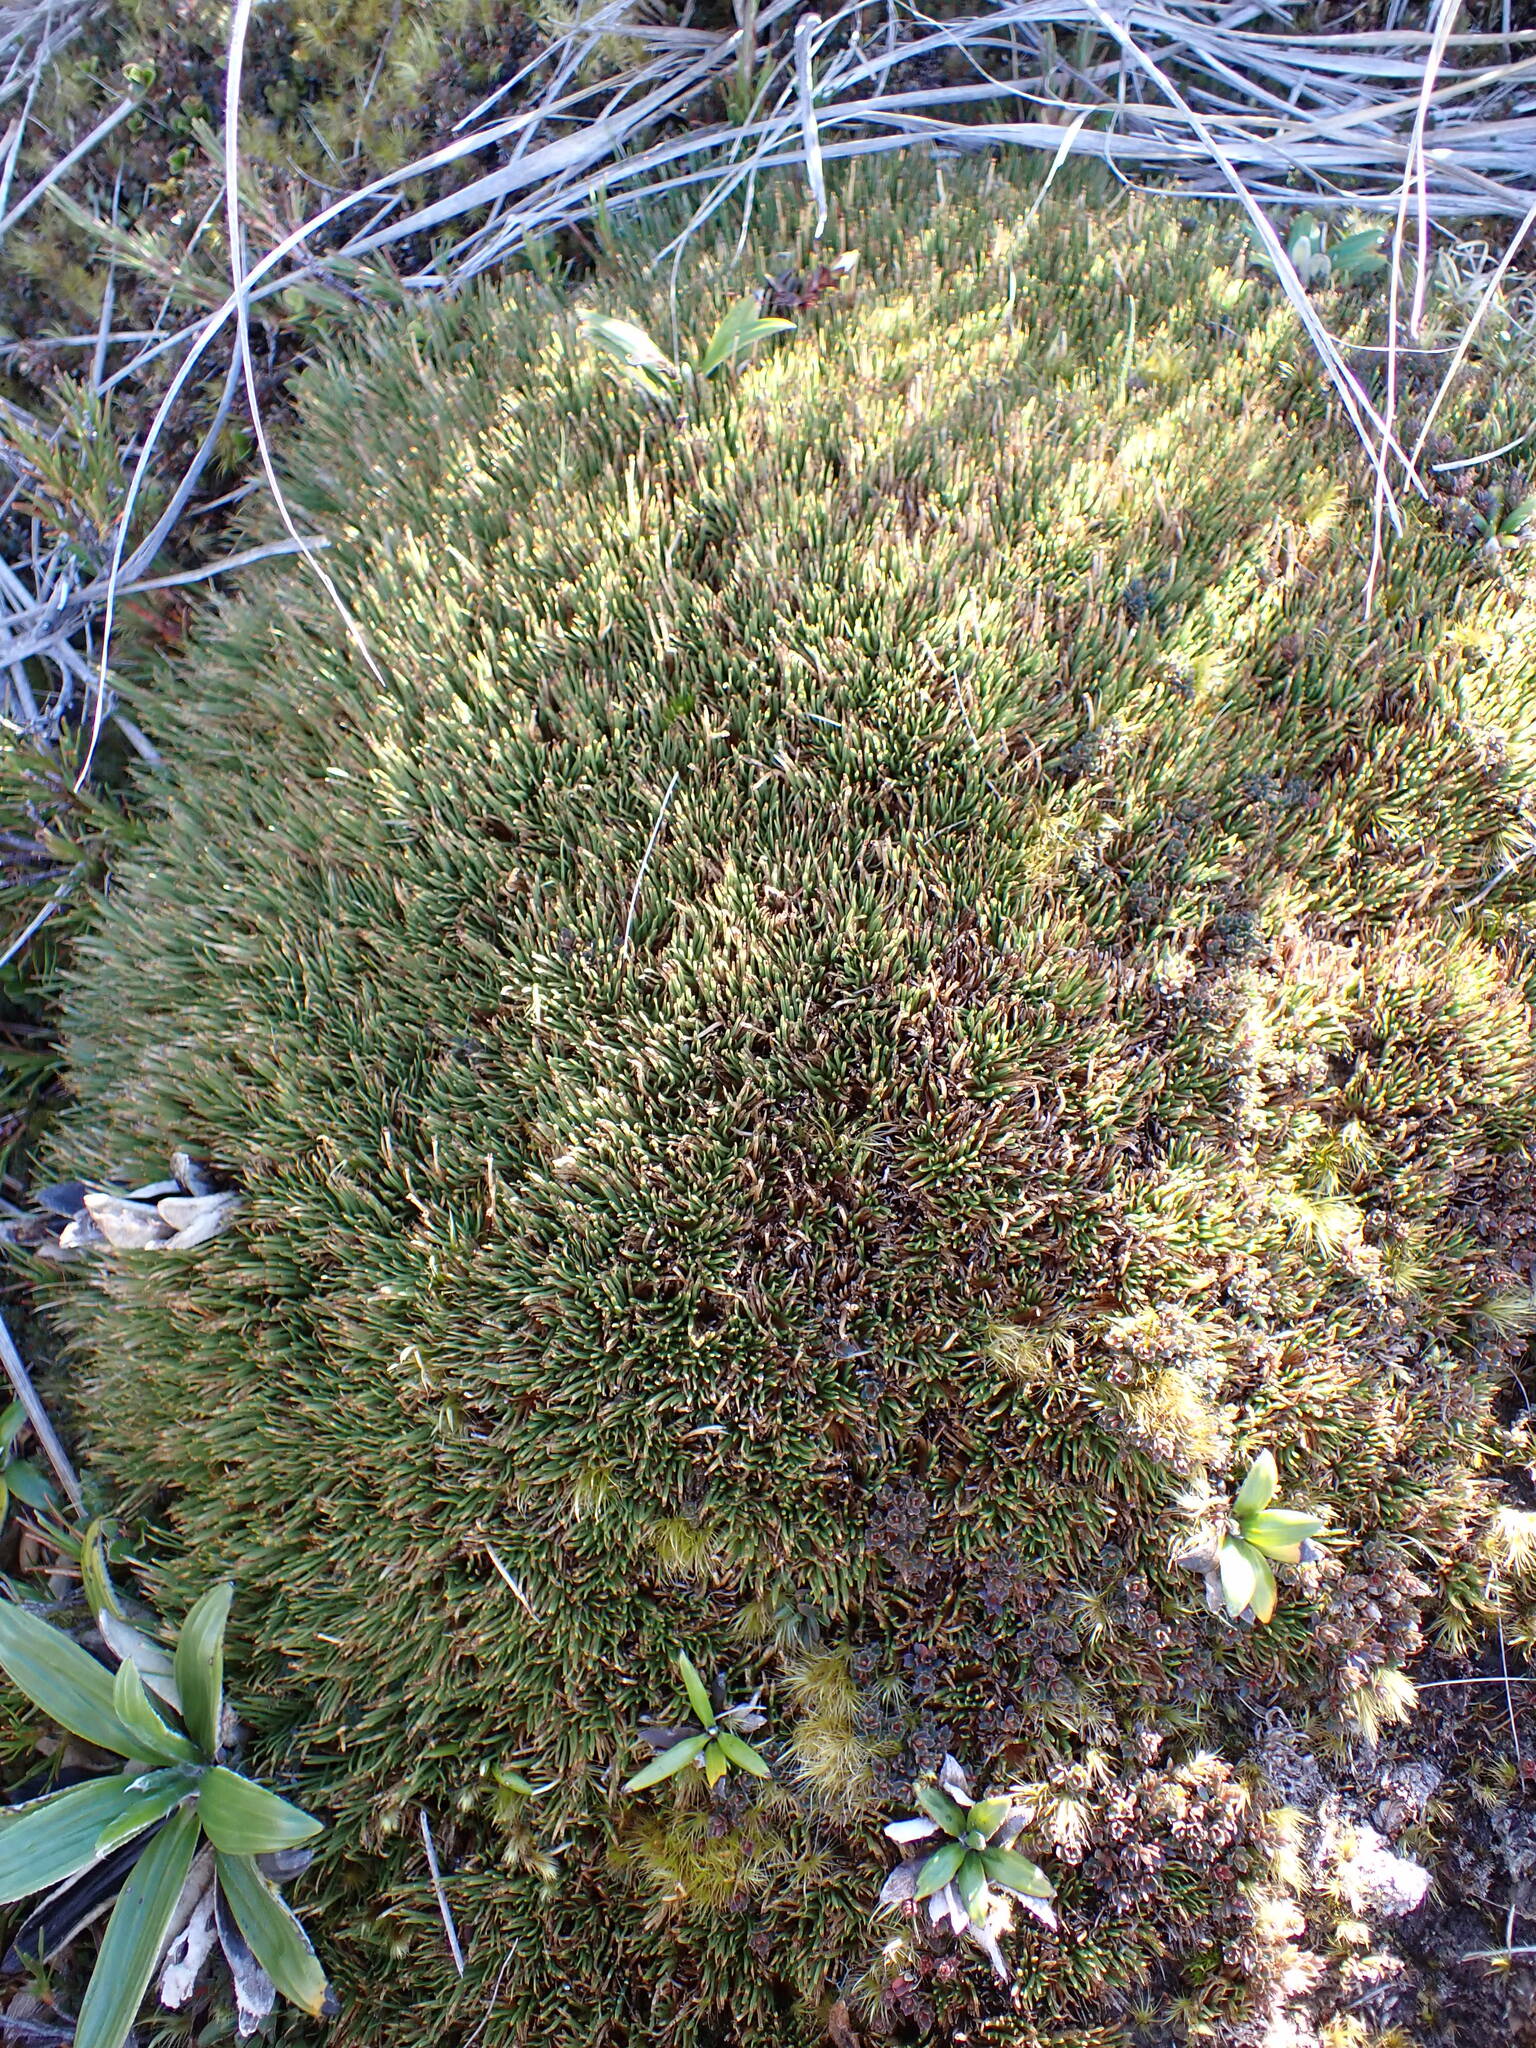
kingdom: Plantae
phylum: Tracheophyta
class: Liliopsida
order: Poales
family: Cyperaceae
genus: Oreobolus
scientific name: Oreobolus pectinatus
